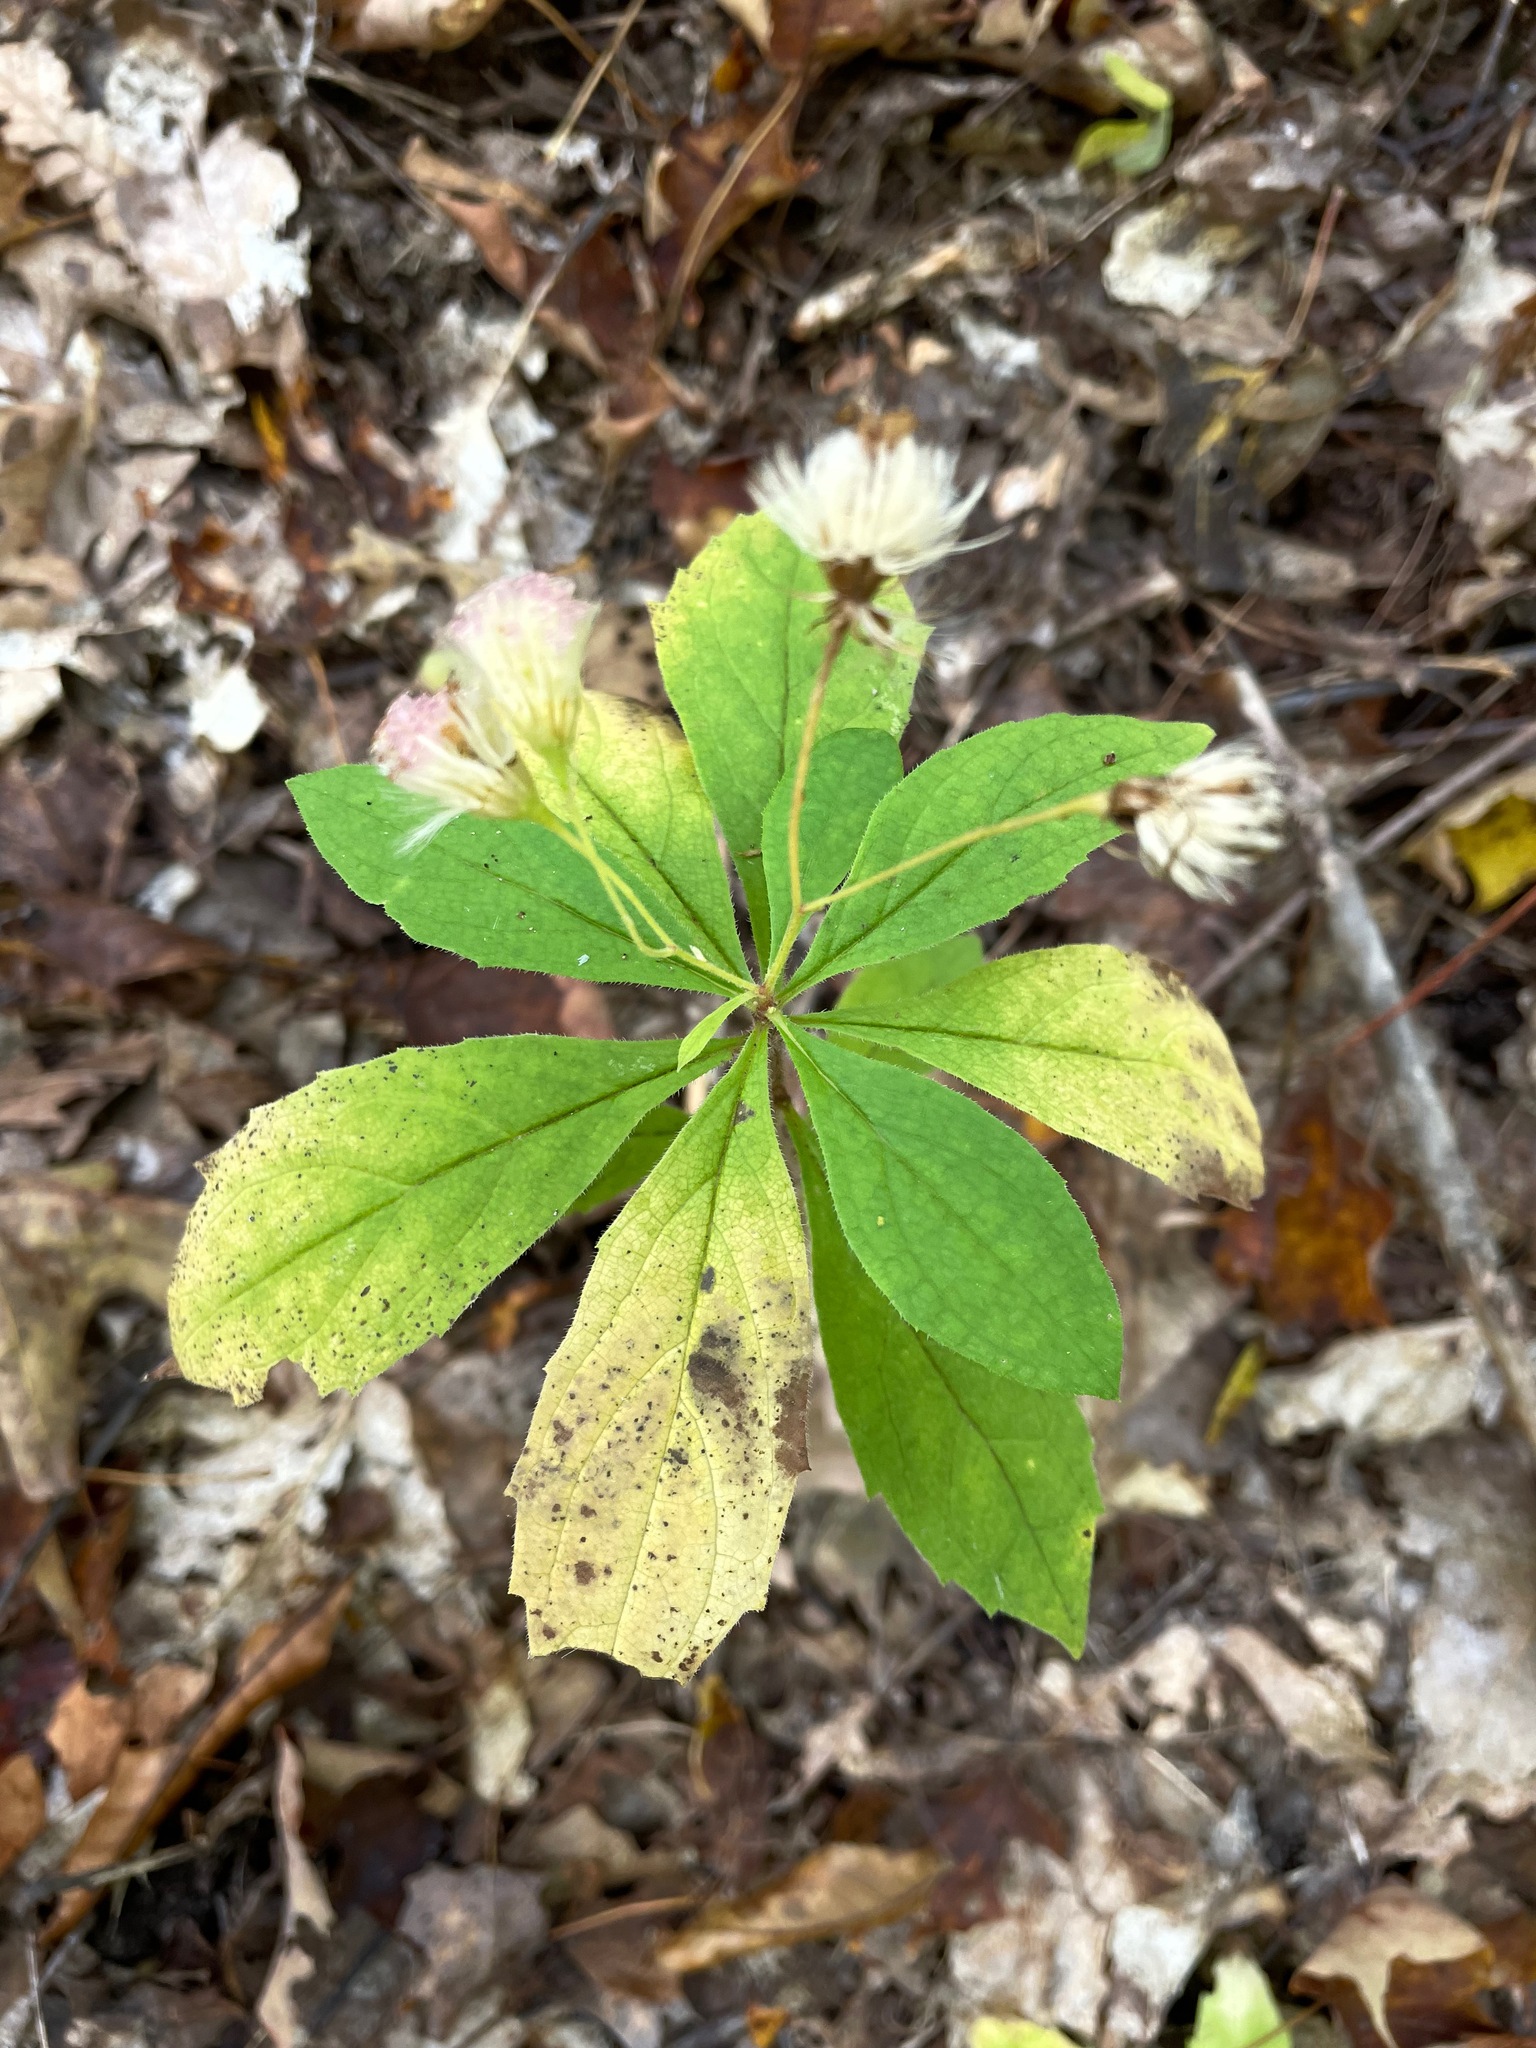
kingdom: Plantae
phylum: Tracheophyta
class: Magnoliopsida
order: Asterales
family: Asteraceae
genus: Oclemena
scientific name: Oclemena acuminata
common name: Mountain aster
